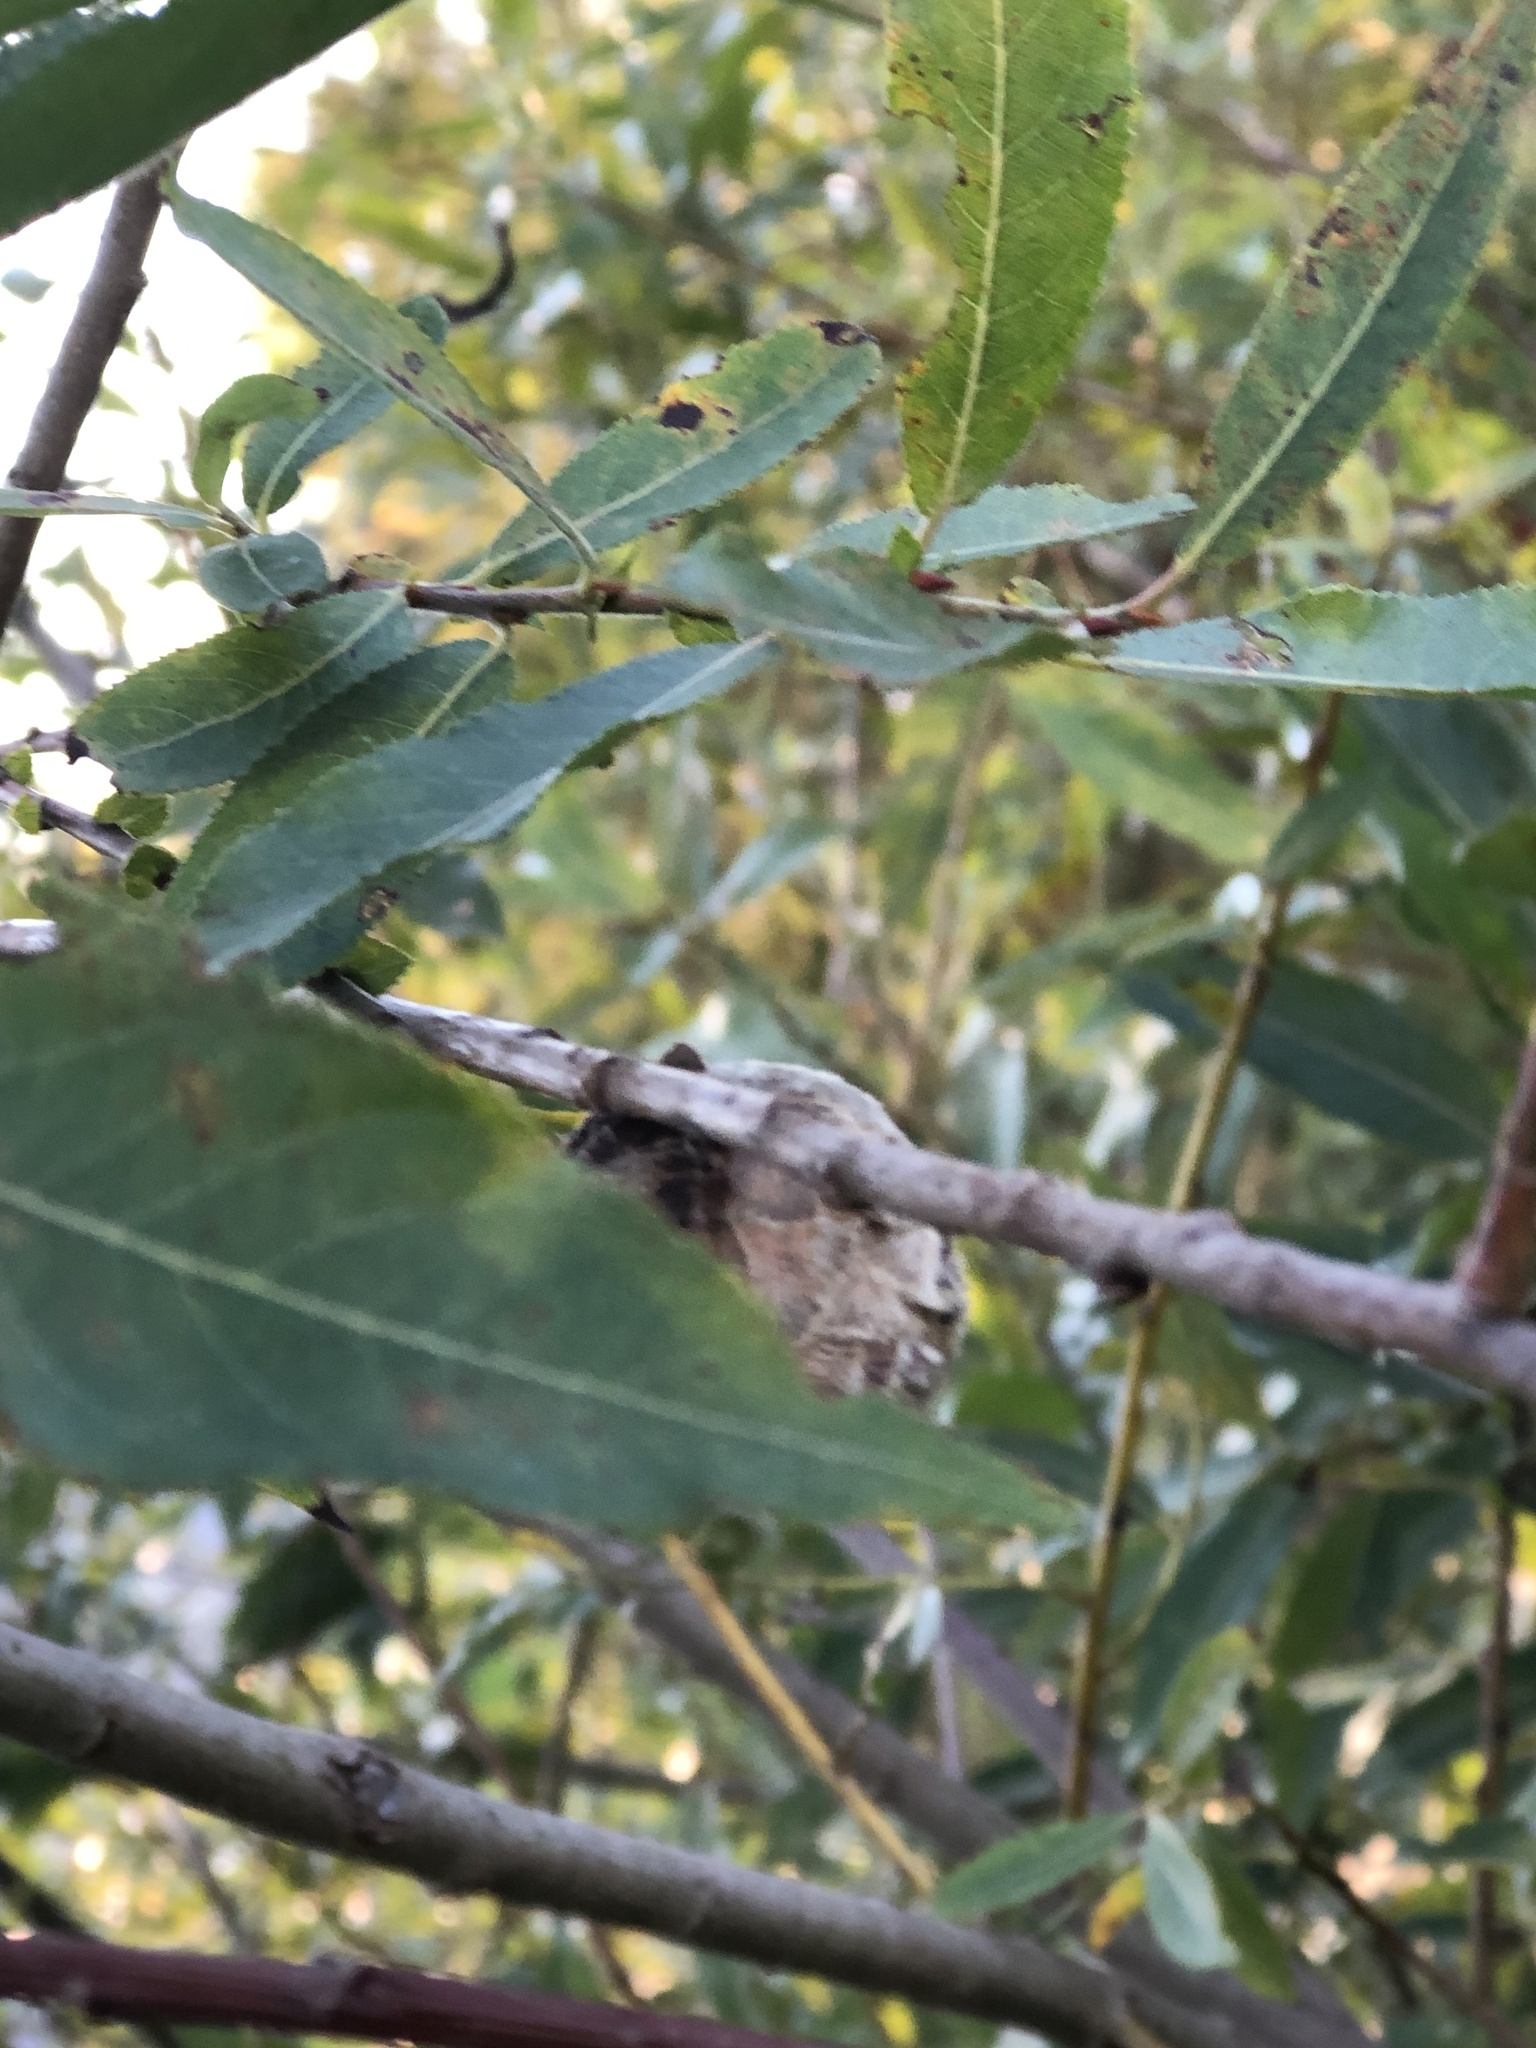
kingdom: Animalia
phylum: Arthropoda
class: Insecta
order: Diptera
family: Cecidomyiidae
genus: Rabdophaga
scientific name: Rabdophaga strobiloides
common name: Willow pinecone gall midge
